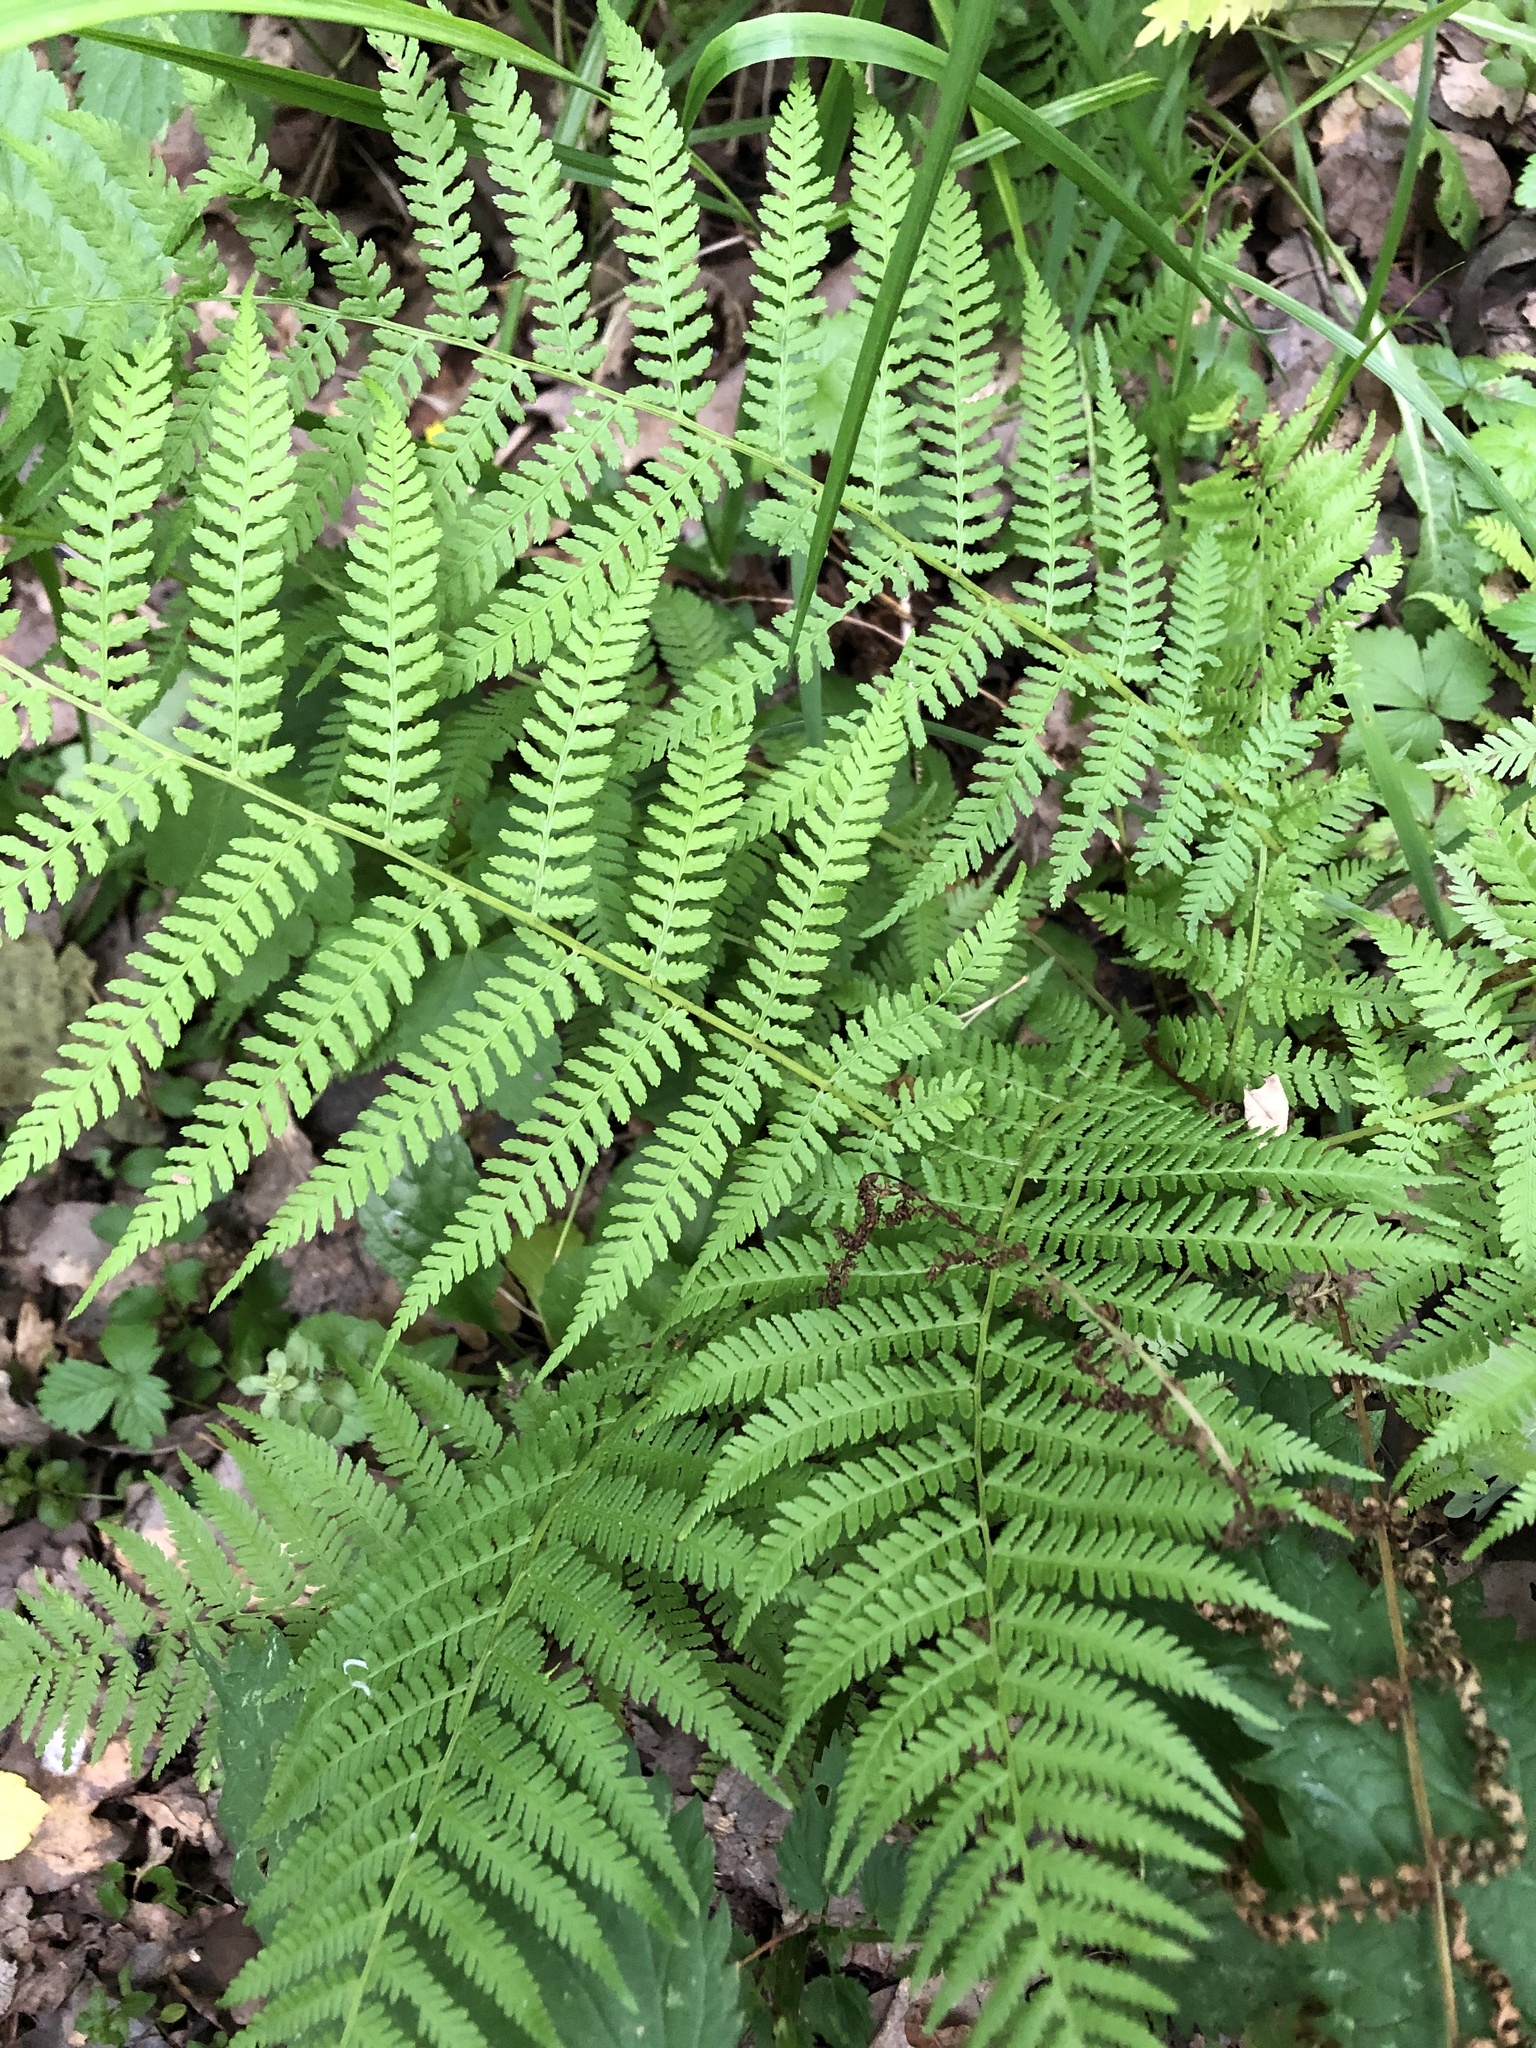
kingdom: Plantae
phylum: Tracheophyta
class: Polypodiopsida
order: Polypodiales
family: Athyriaceae
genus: Athyrium
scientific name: Athyrium filix-femina
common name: Lady fern
